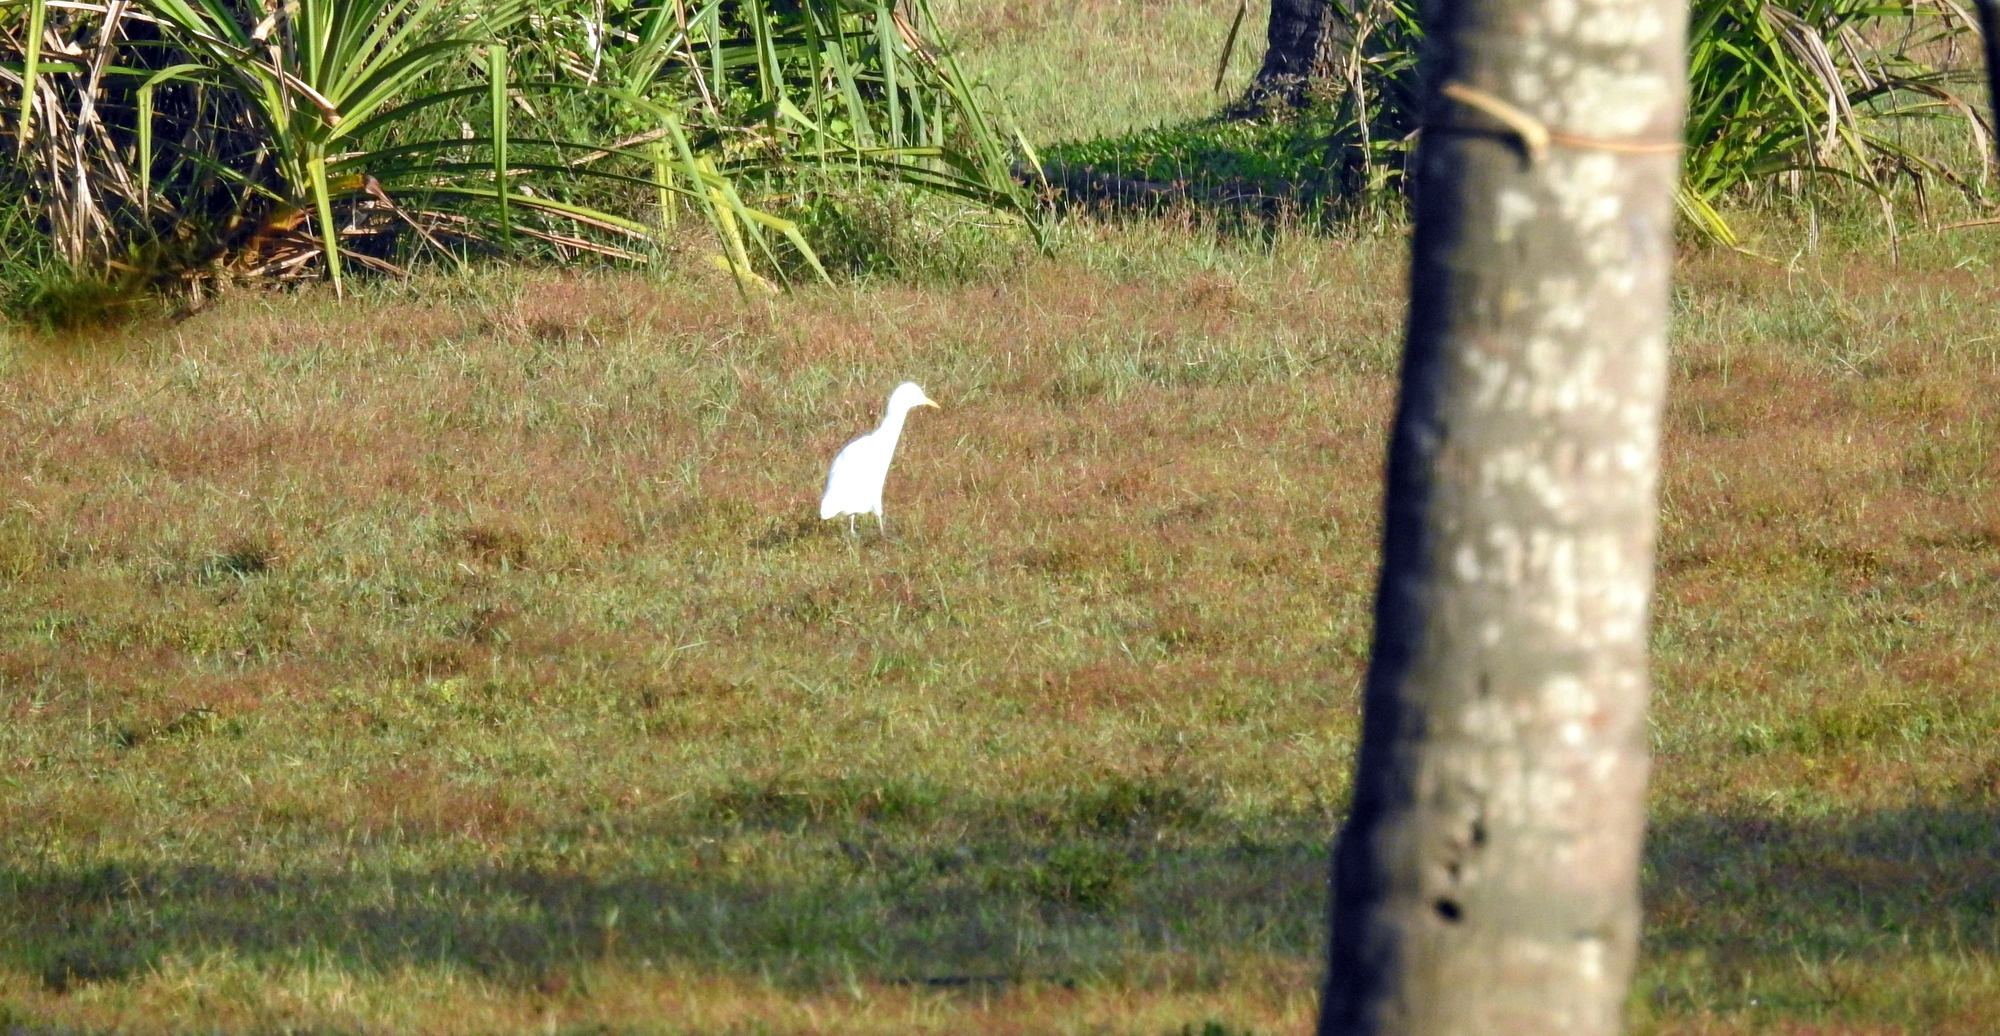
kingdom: Animalia
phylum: Chordata
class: Aves
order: Pelecaniformes
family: Ardeidae
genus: Bubulcus
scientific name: Bubulcus coromandus
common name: Eastern cattle egret
